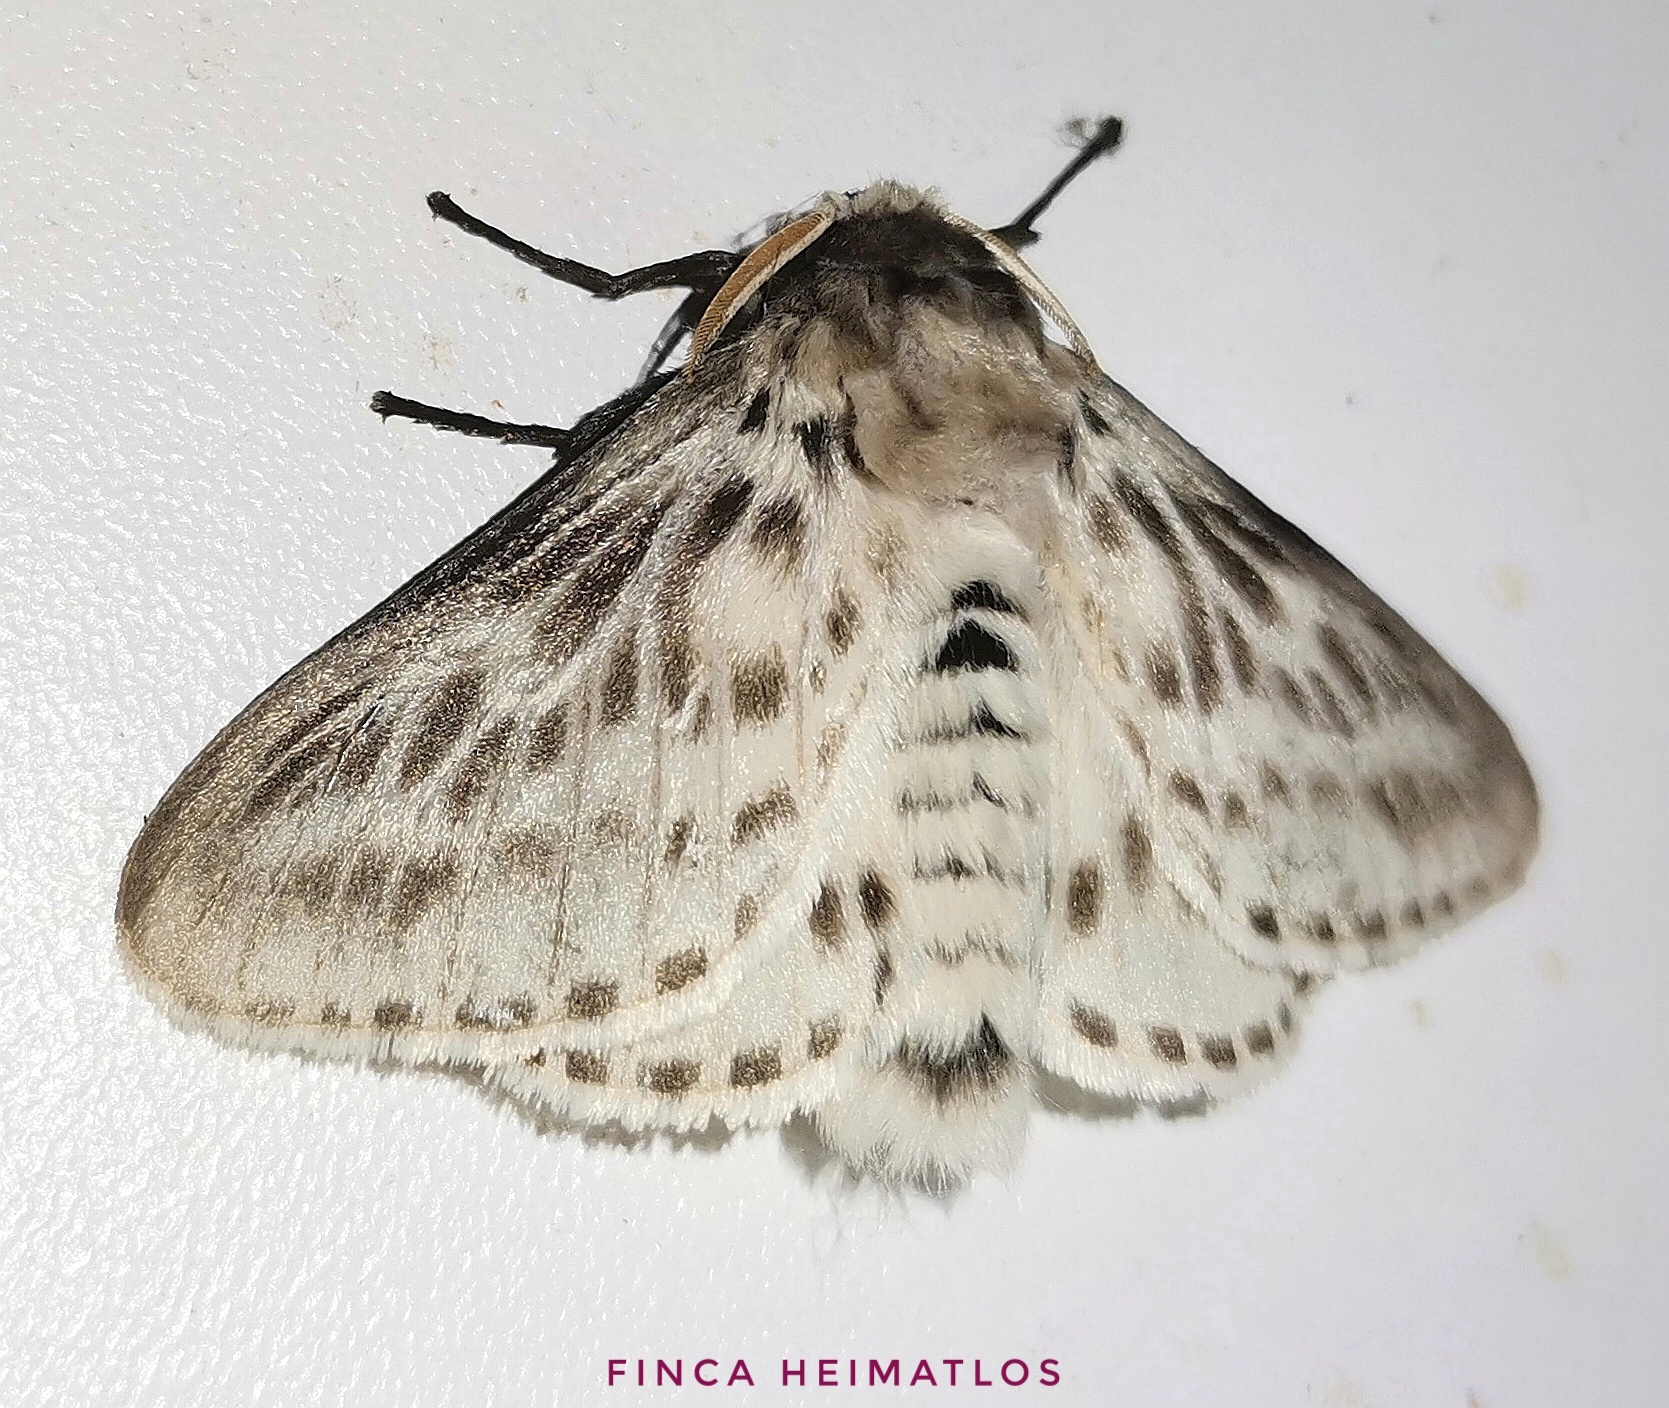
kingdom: Animalia
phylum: Arthropoda
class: Insecta
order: Lepidoptera
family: Megalopygidae
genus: Podalia
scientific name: Podalia gamelia
